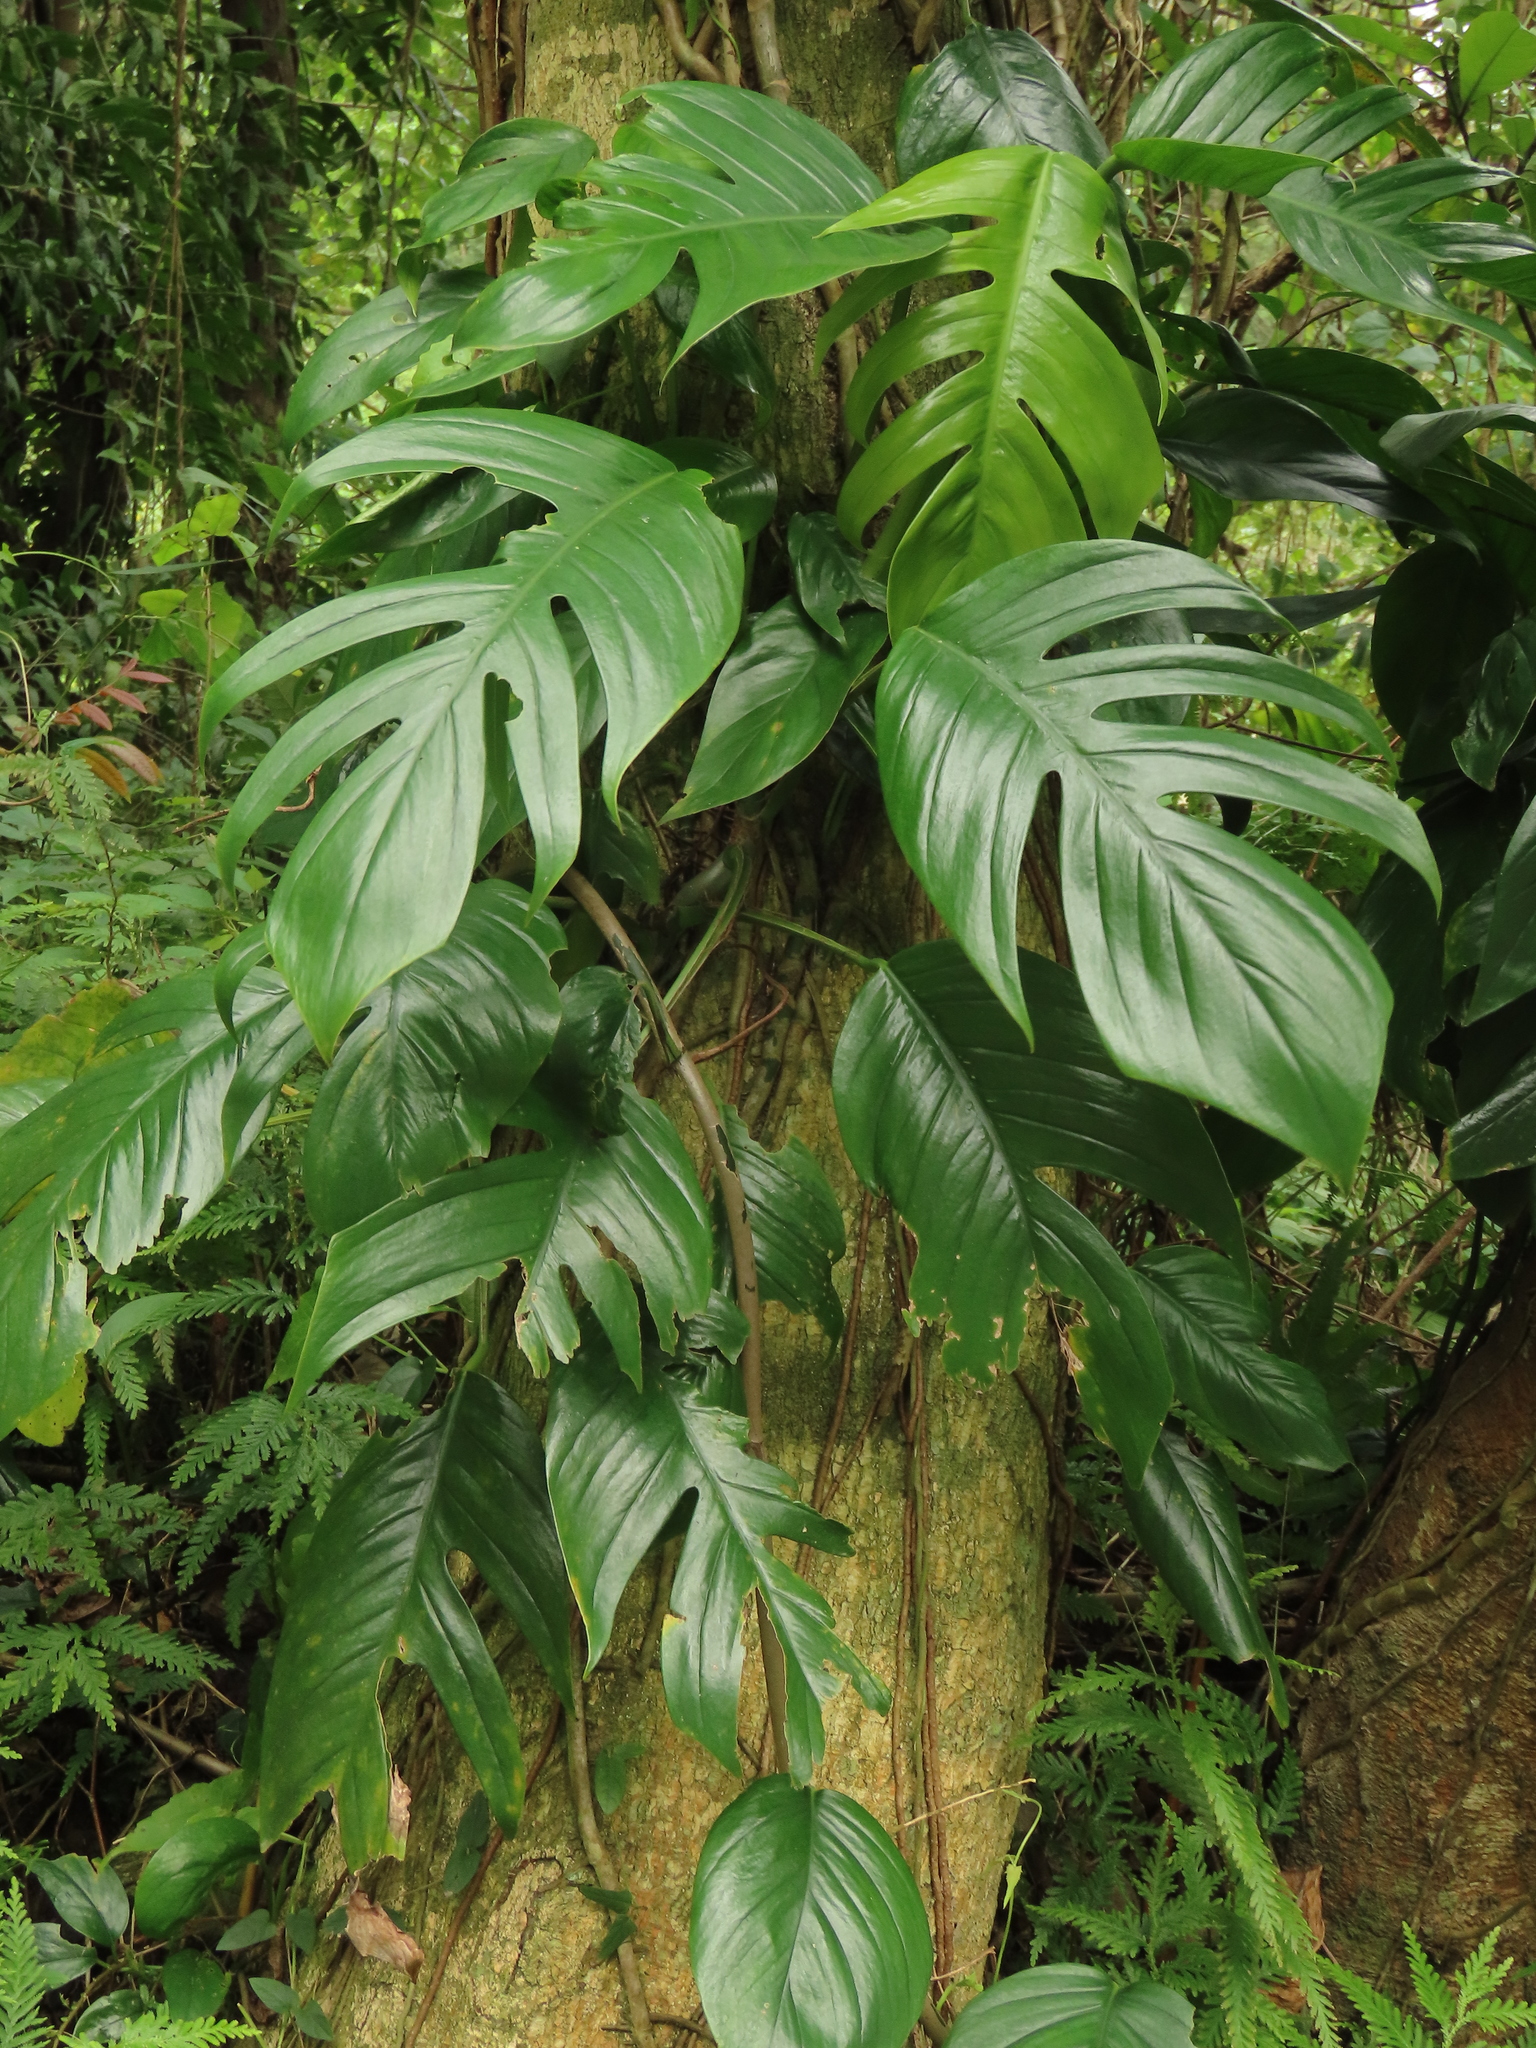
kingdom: Plantae
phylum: Tracheophyta
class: Liliopsida
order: Alismatales
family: Araceae
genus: Epipremnum
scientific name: Epipremnum pinnatum
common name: Centipede tongavine
